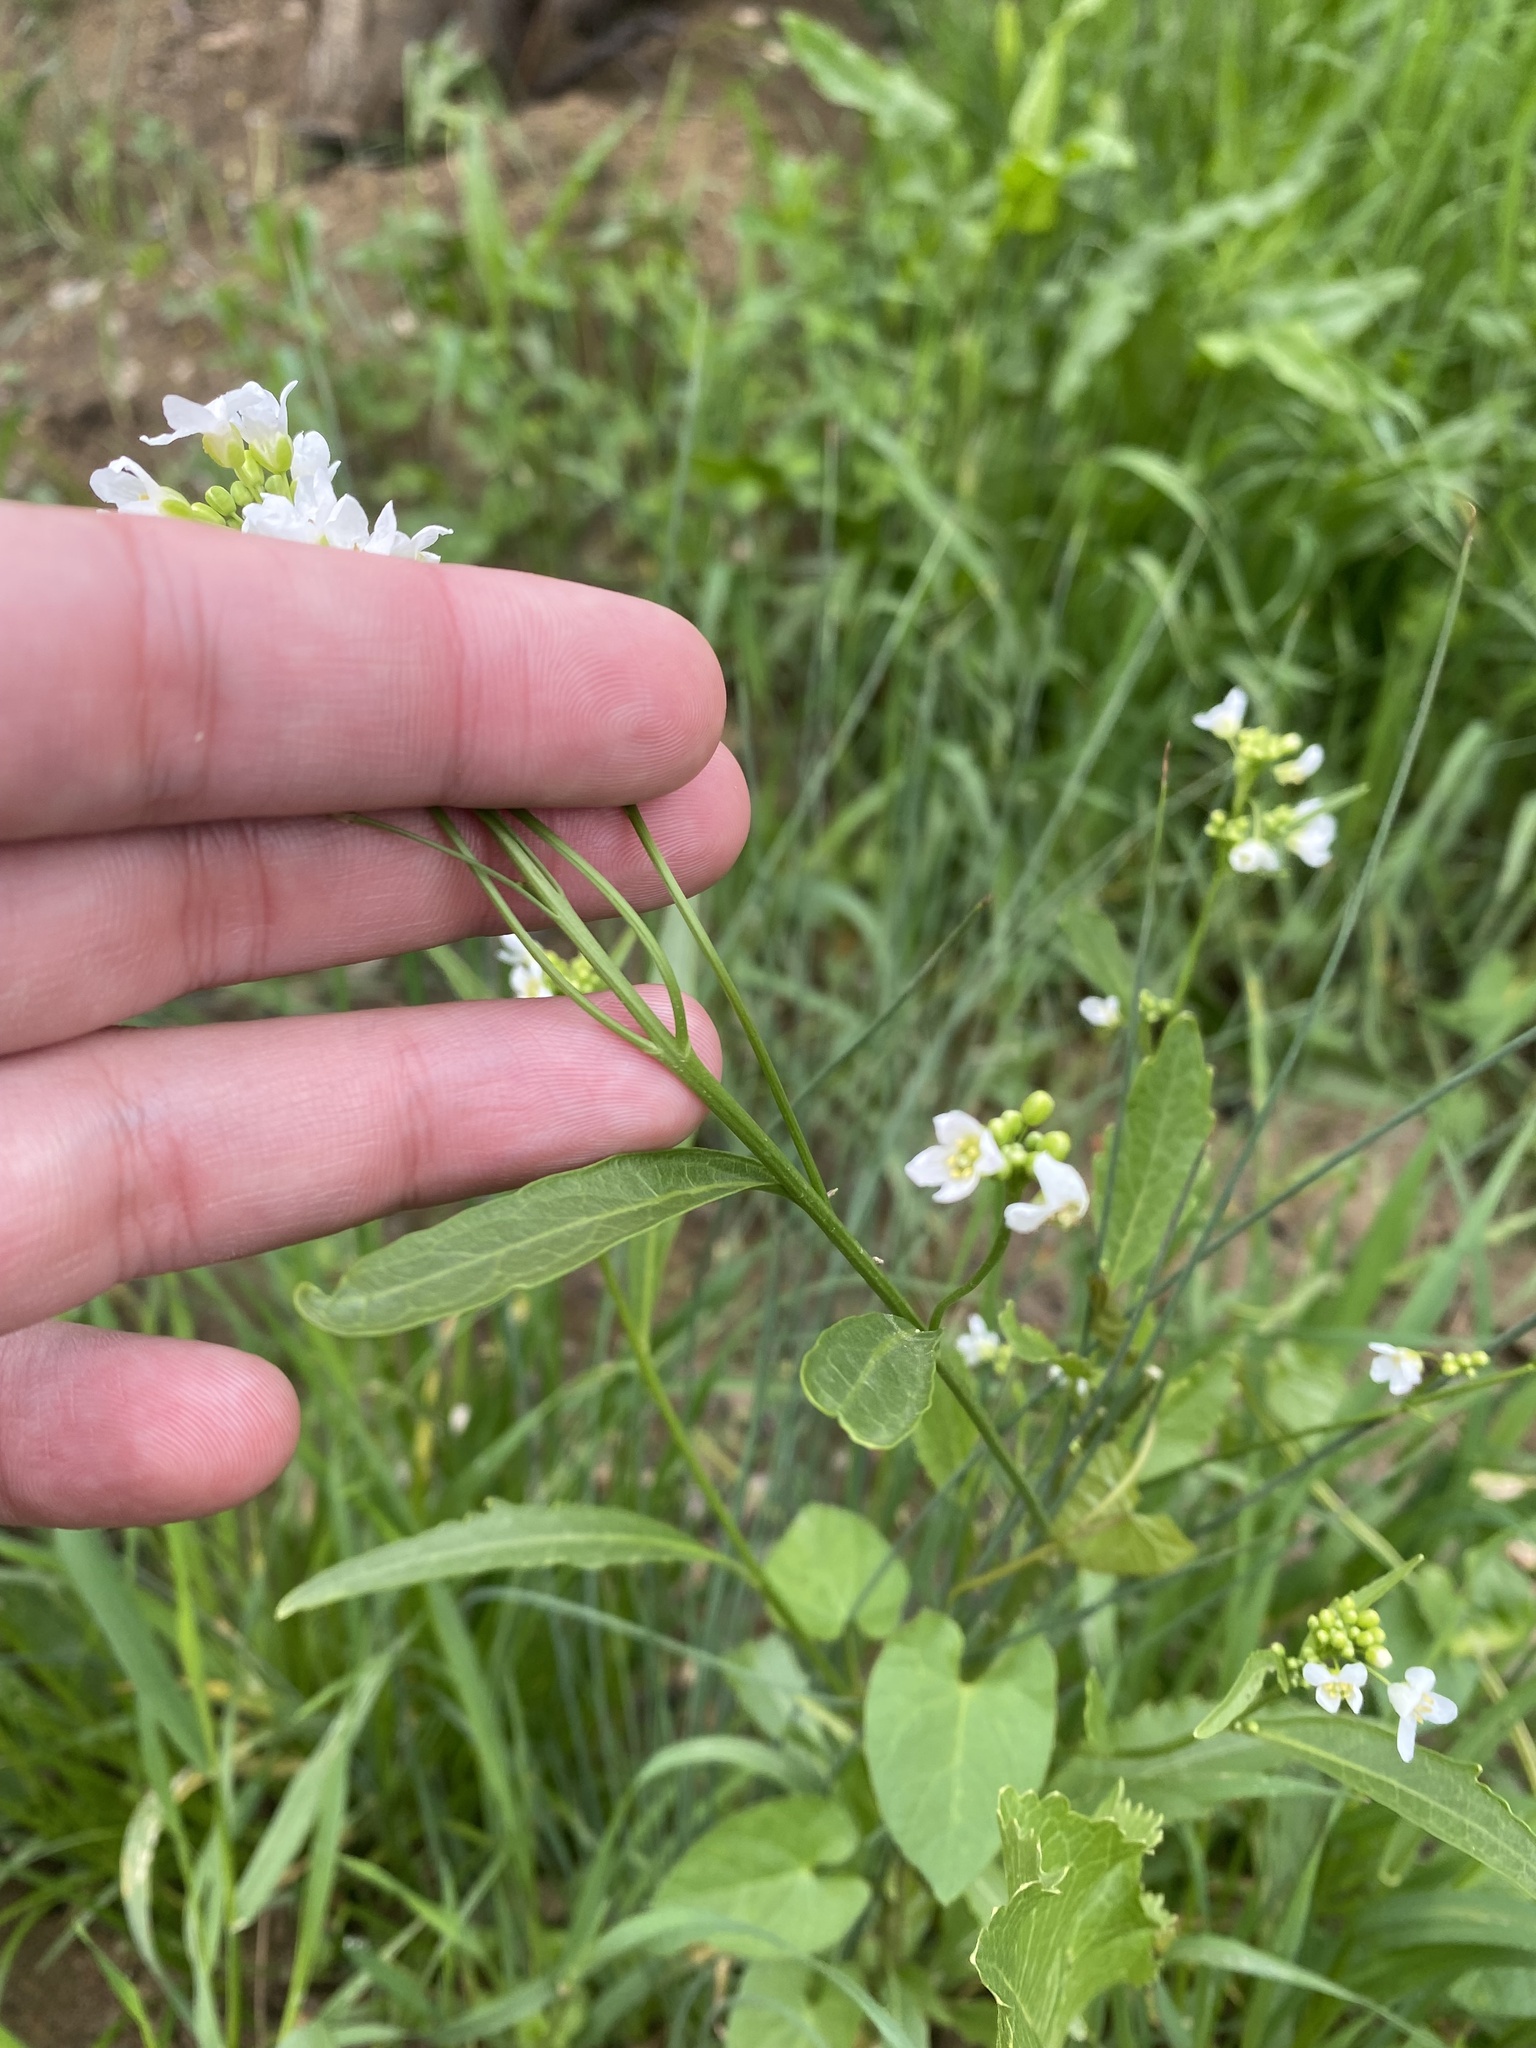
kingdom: Plantae
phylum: Tracheophyta
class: Magnoliopsida
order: Brassicales
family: Brassicaceae
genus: Armoracia
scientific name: Armoracia rusticana
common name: Horseradish
